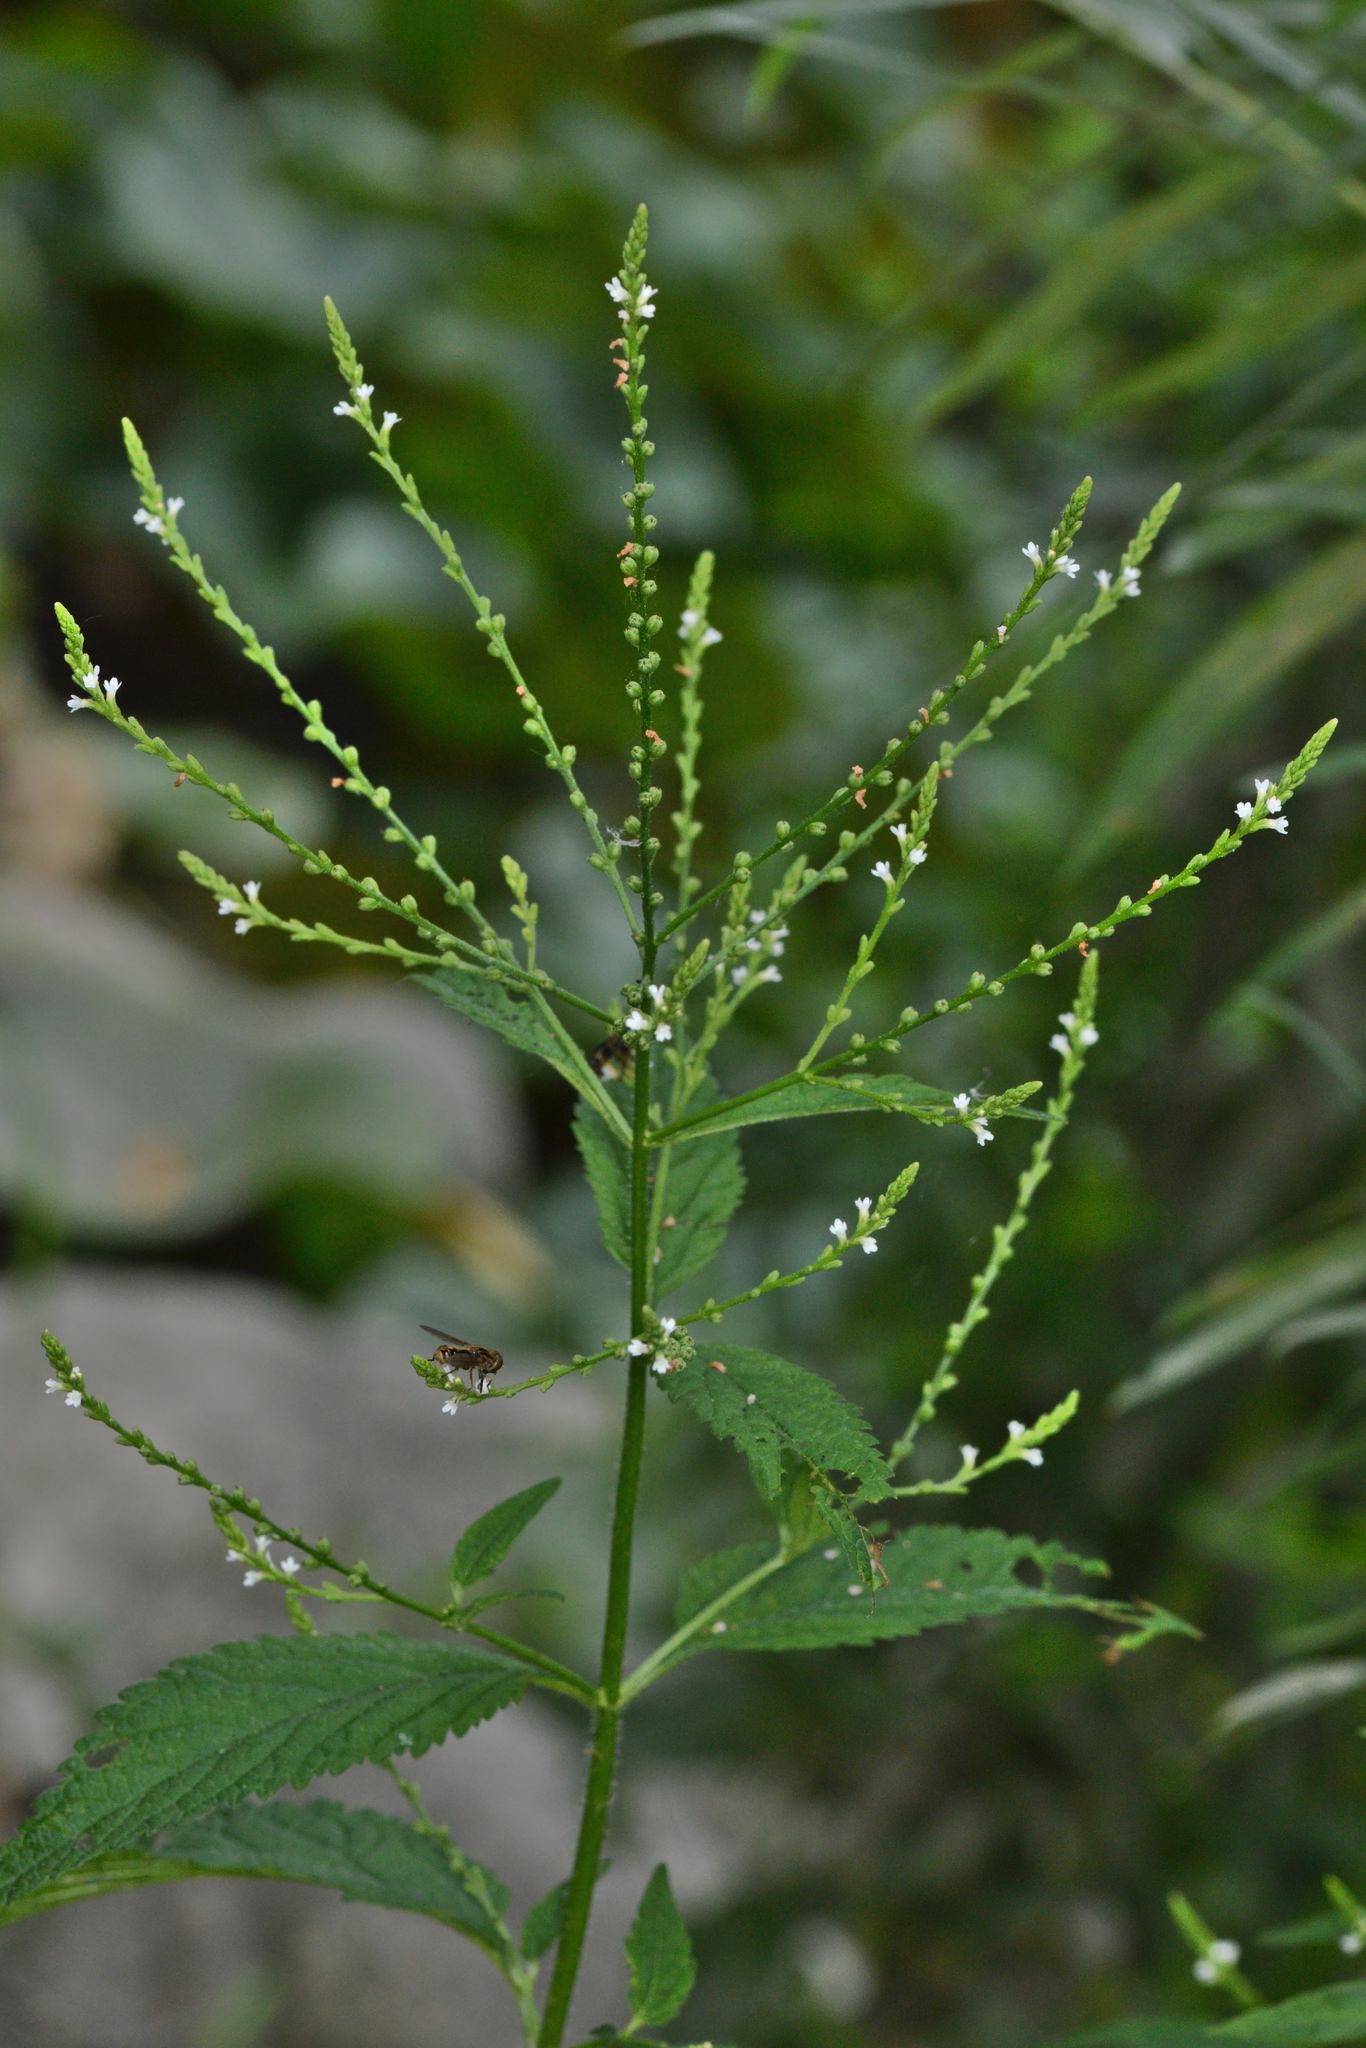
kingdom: Plantae
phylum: Tracheophyta
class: Magnoliopsida
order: Lamiales
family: Verbenaceae
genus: Verbena
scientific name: Verbena urticifolia
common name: Nettle-leaved vervain
